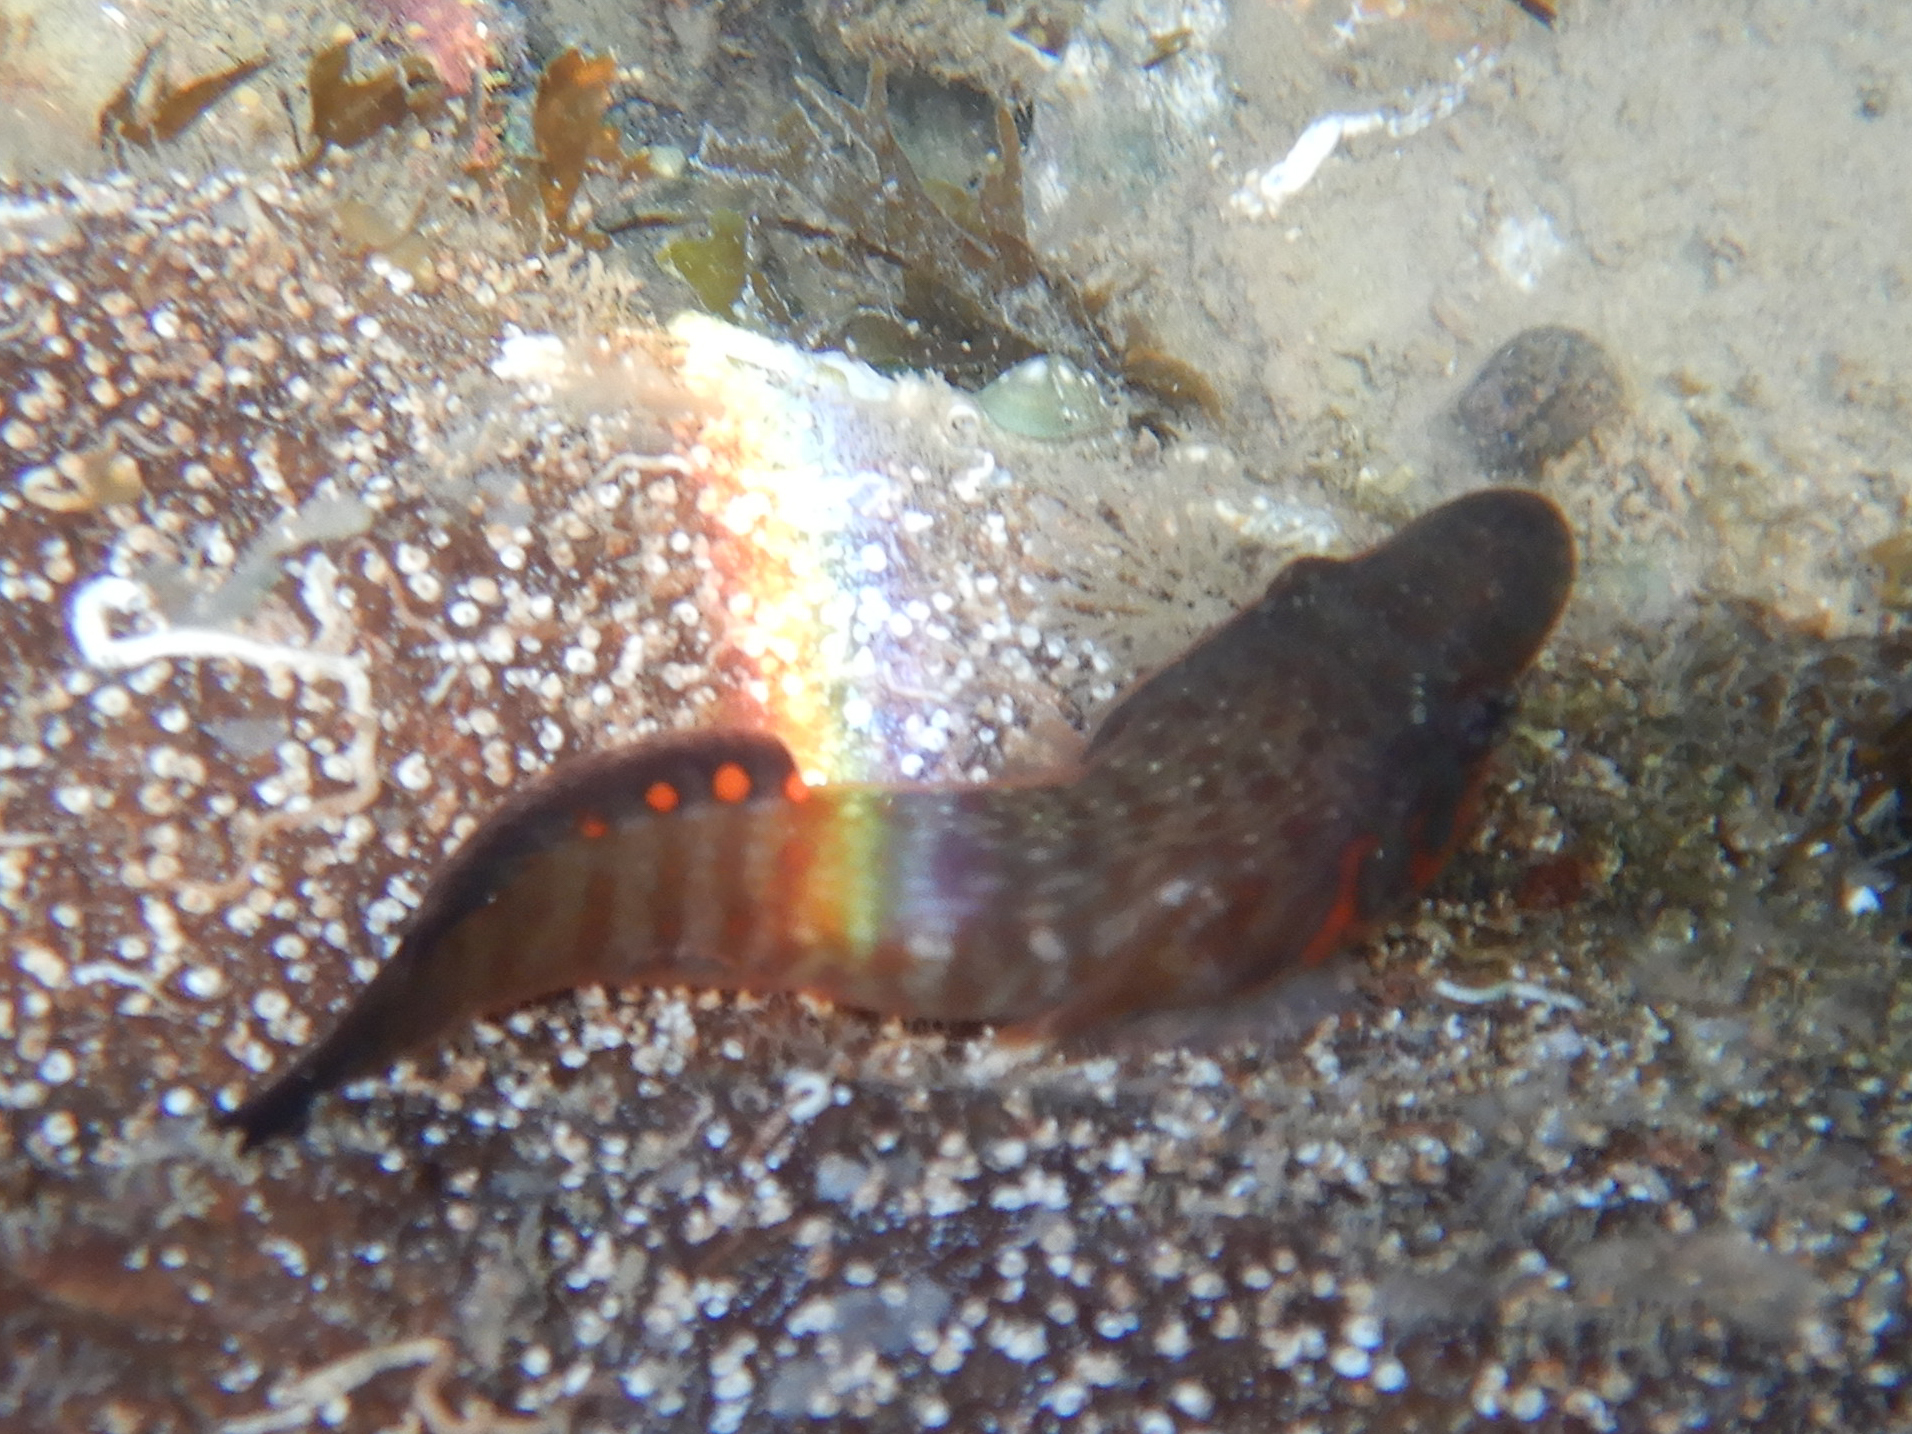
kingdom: Animalia
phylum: Chordata
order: Gobiesociformes
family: Gobiesocidae
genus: Lepadogaster
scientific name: Lepadogaster candolii
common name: Connemarra clingfish
